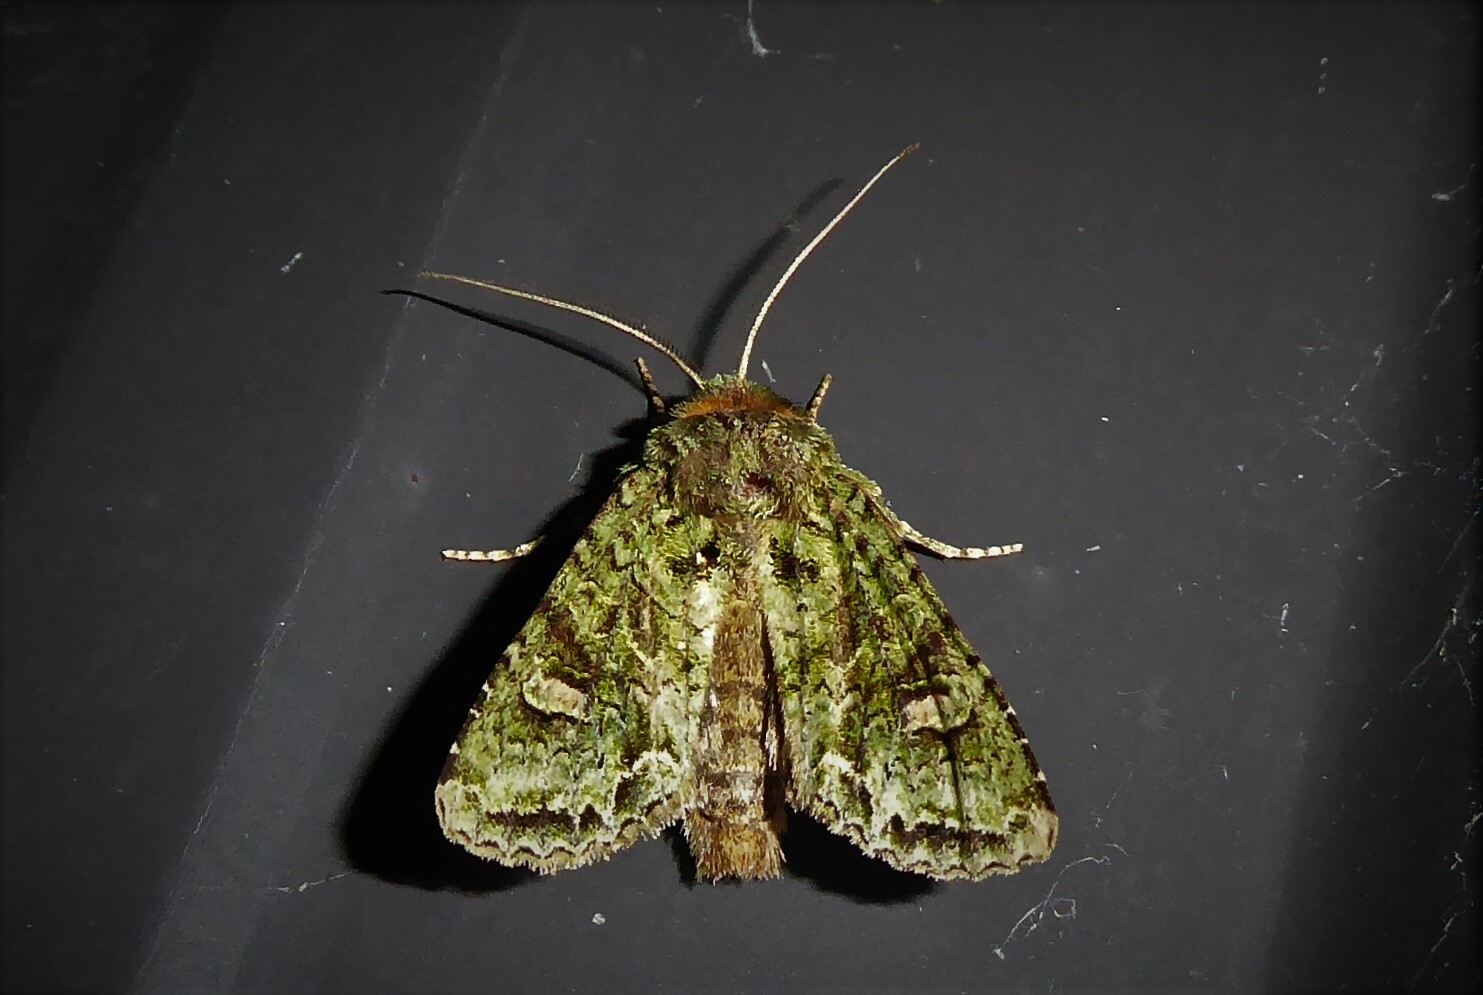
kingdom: Animalia
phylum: Arthropoda
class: Insecta
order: Lepidoptera
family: Noctuidae
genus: Ichneutica
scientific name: Ichneutica
